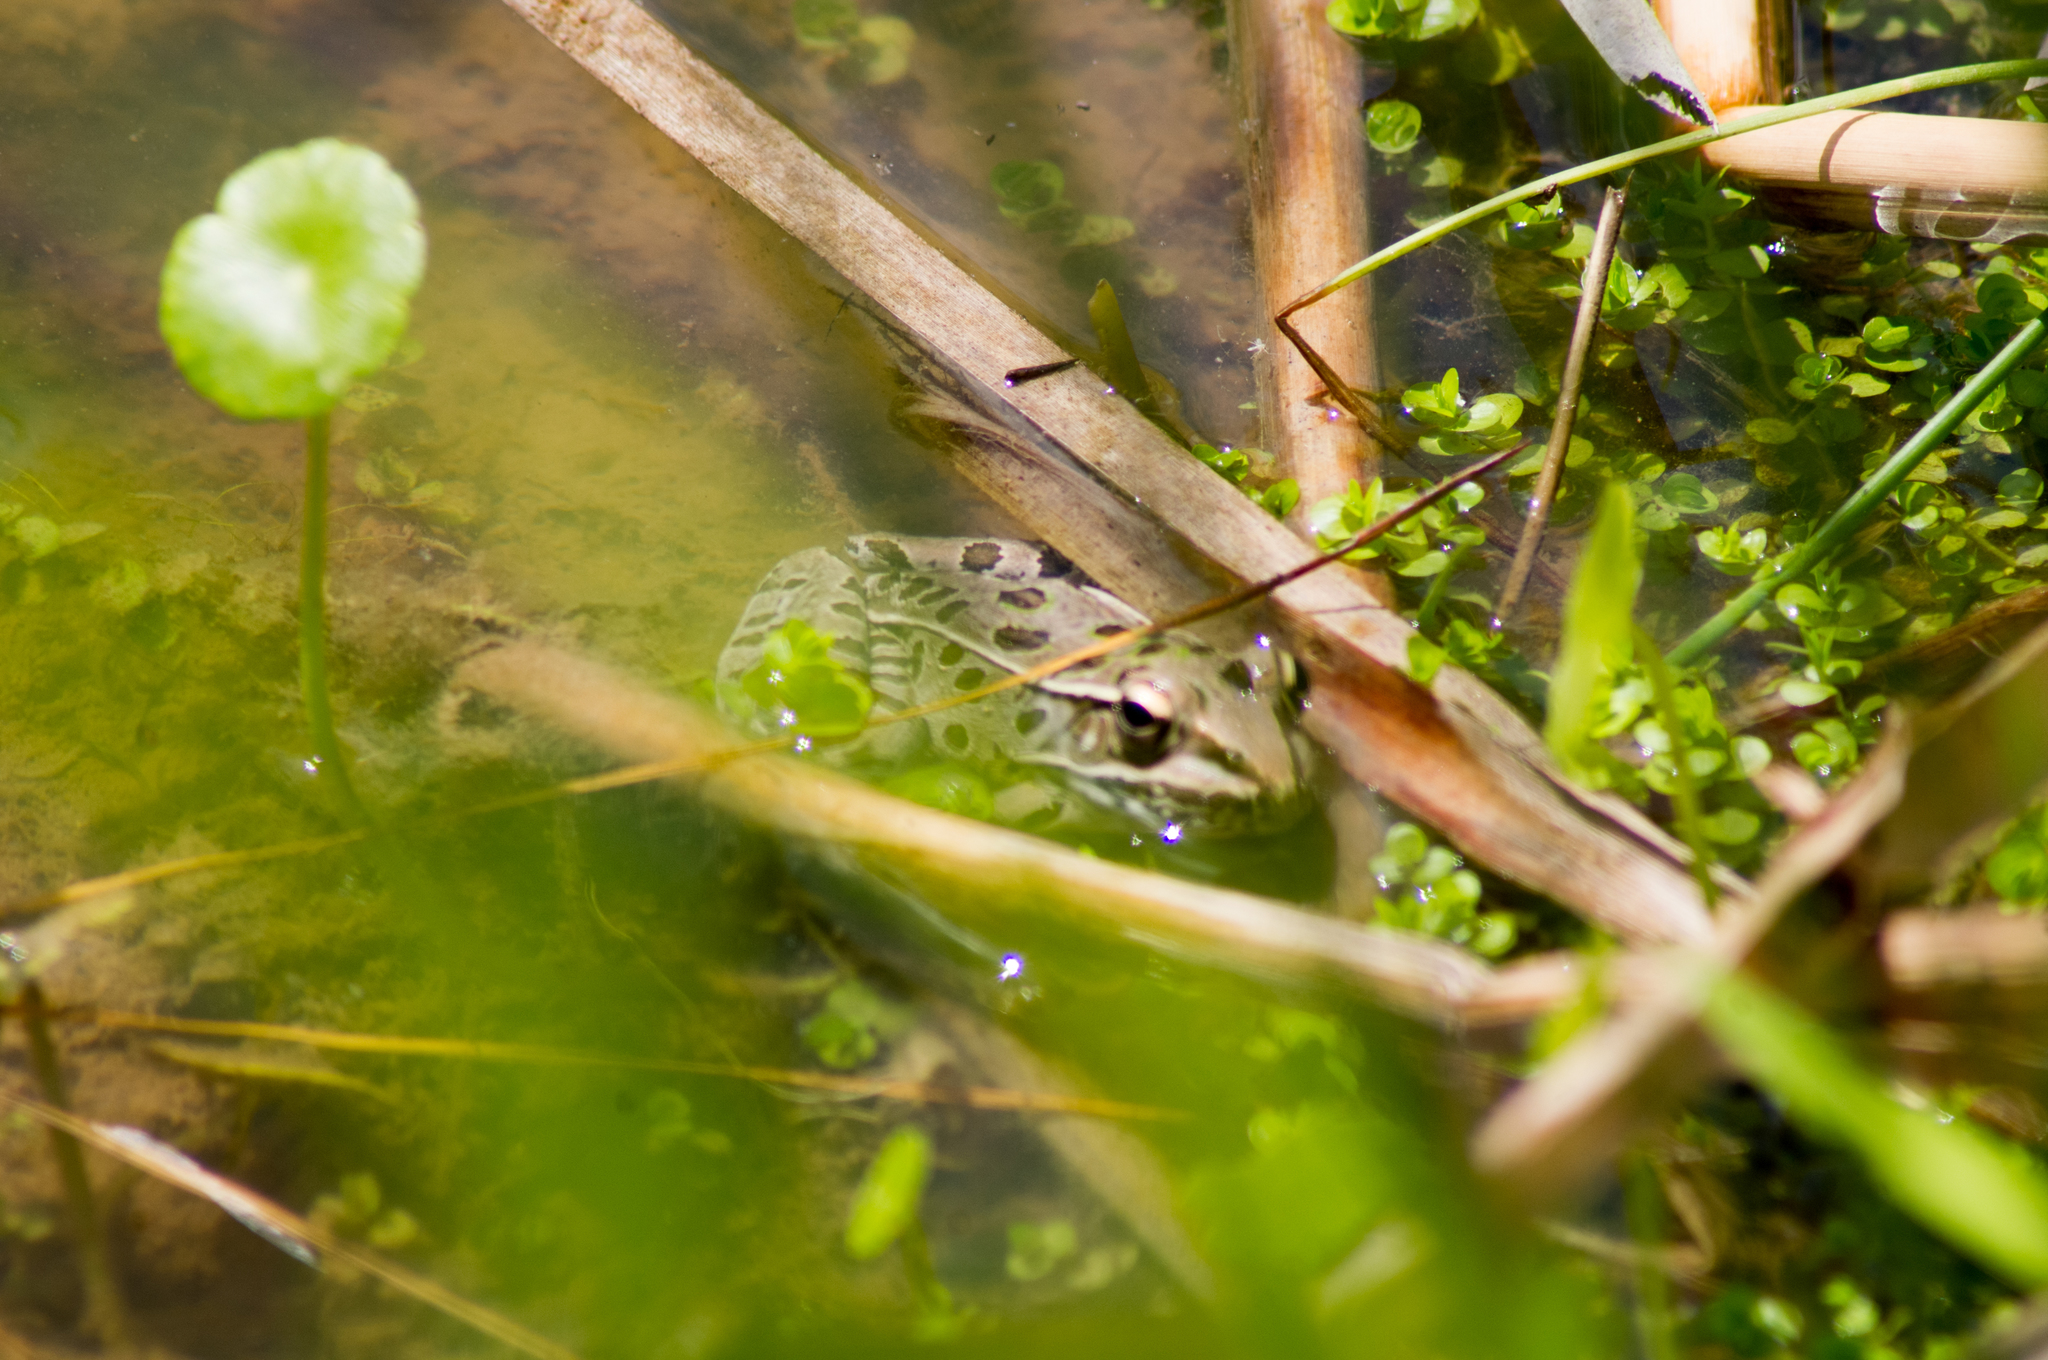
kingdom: Animalia
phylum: Chordata
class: Amphibia
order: Anura
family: Ranidae
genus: Lithobates
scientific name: Lithobates sphenocephalus
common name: Southern leopard frog
